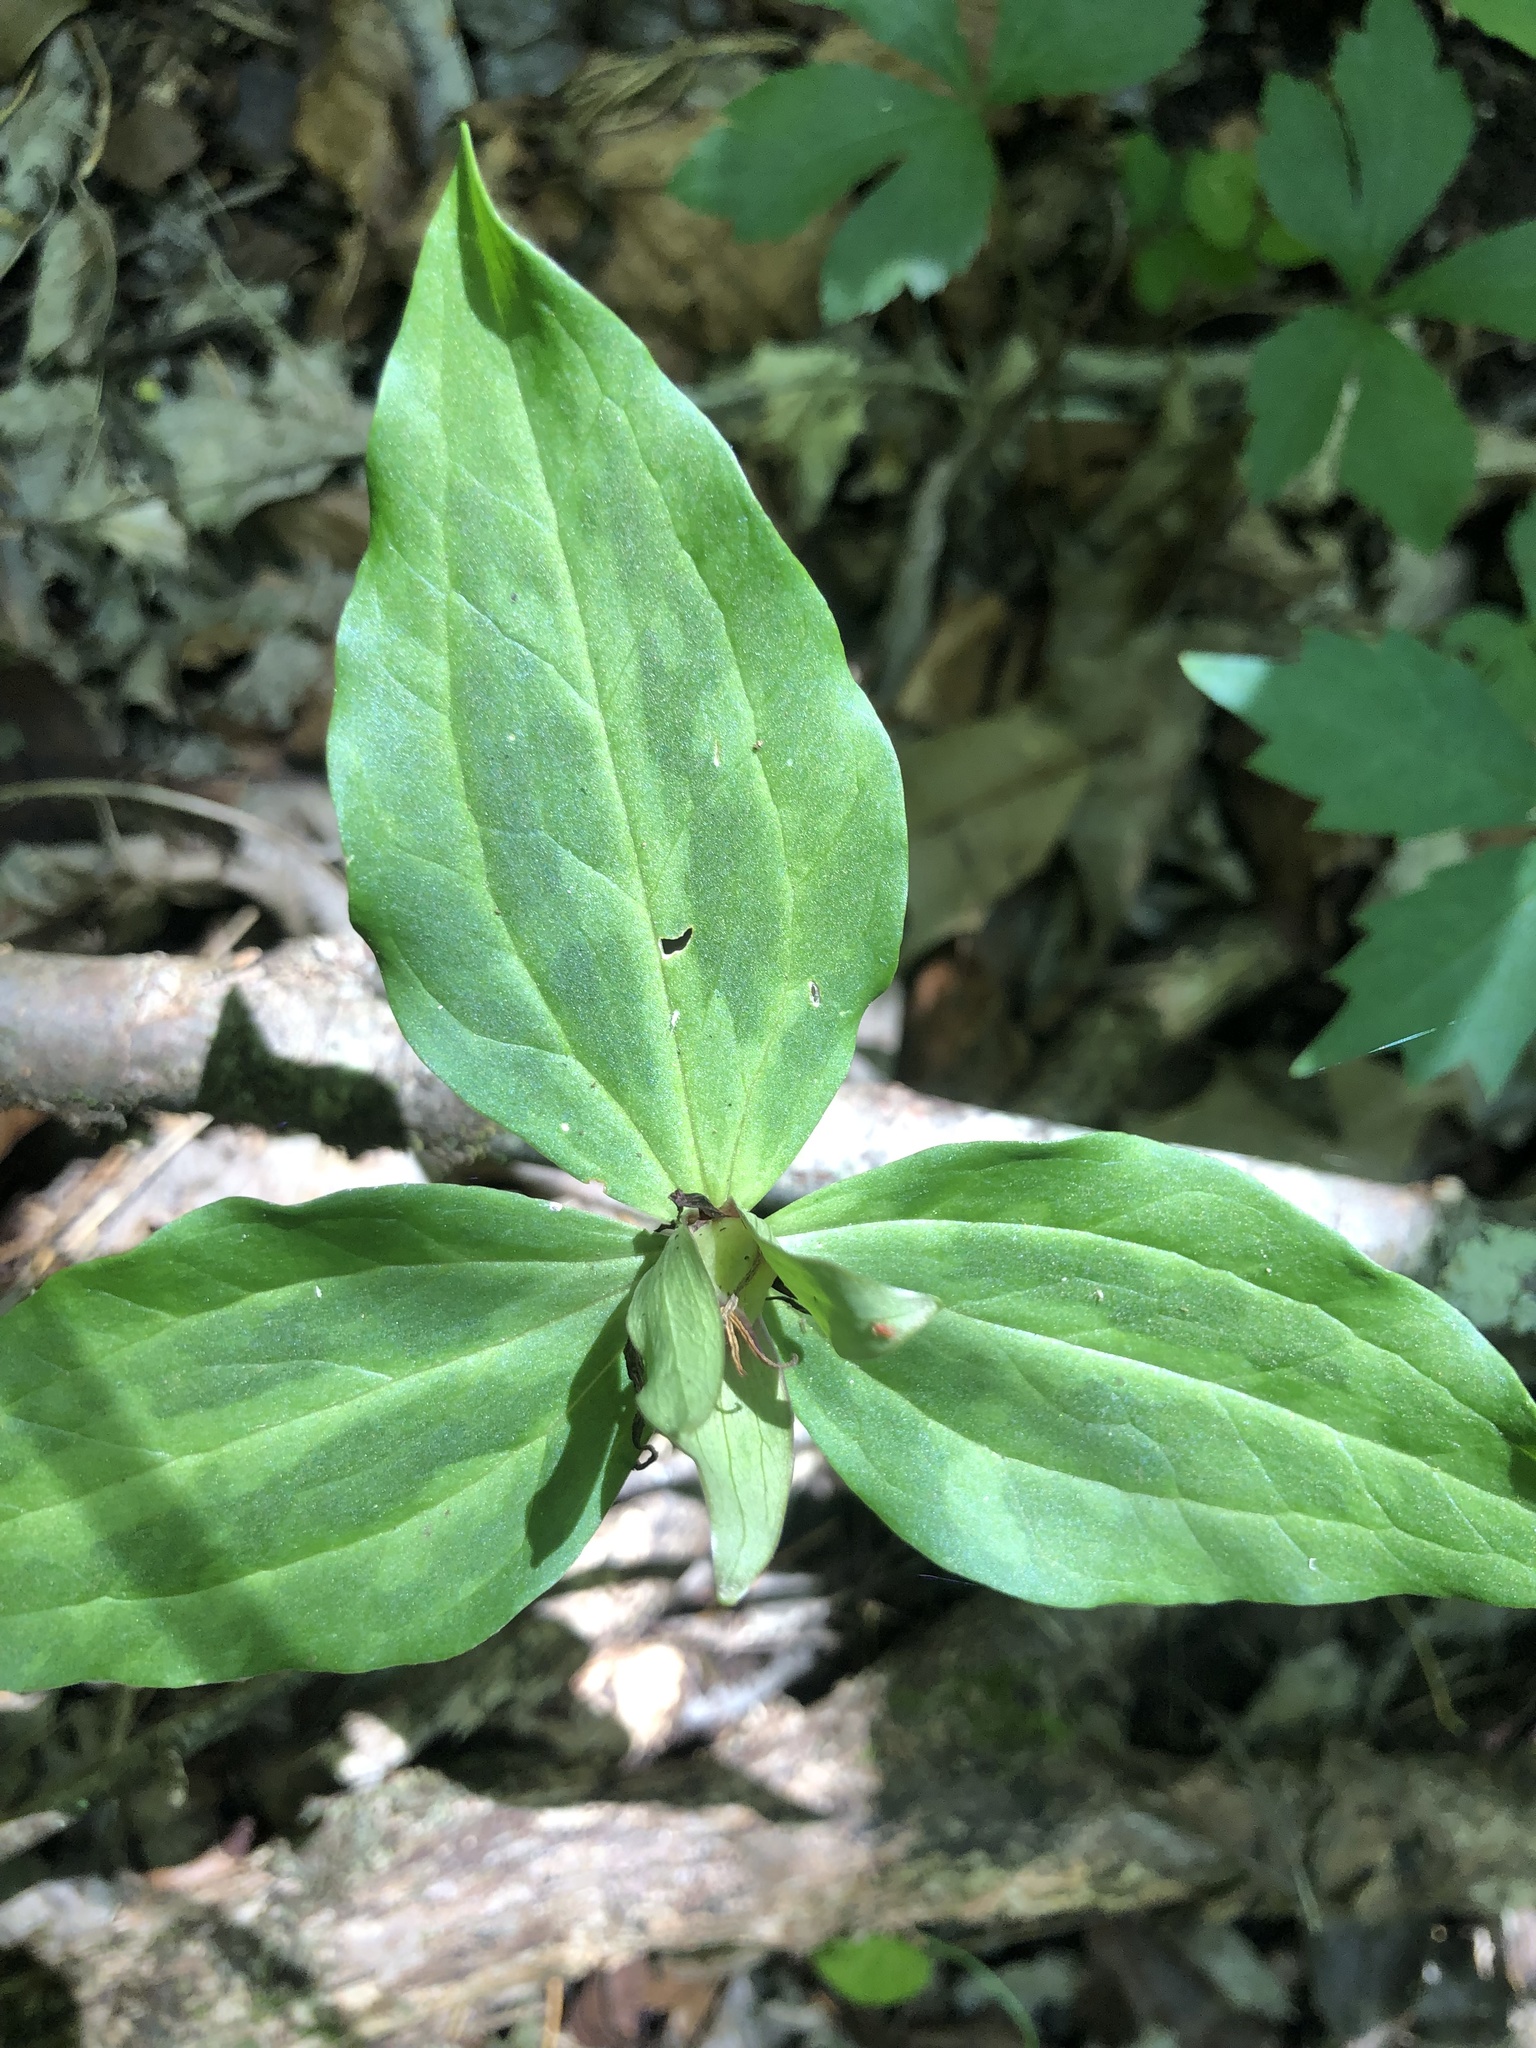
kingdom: Plantae
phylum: Tracheophyta
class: Liliopsida
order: Liliales
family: Melanthiaceae
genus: Trillium
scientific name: Trillium stamineum
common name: Blue ridge wakerobin
